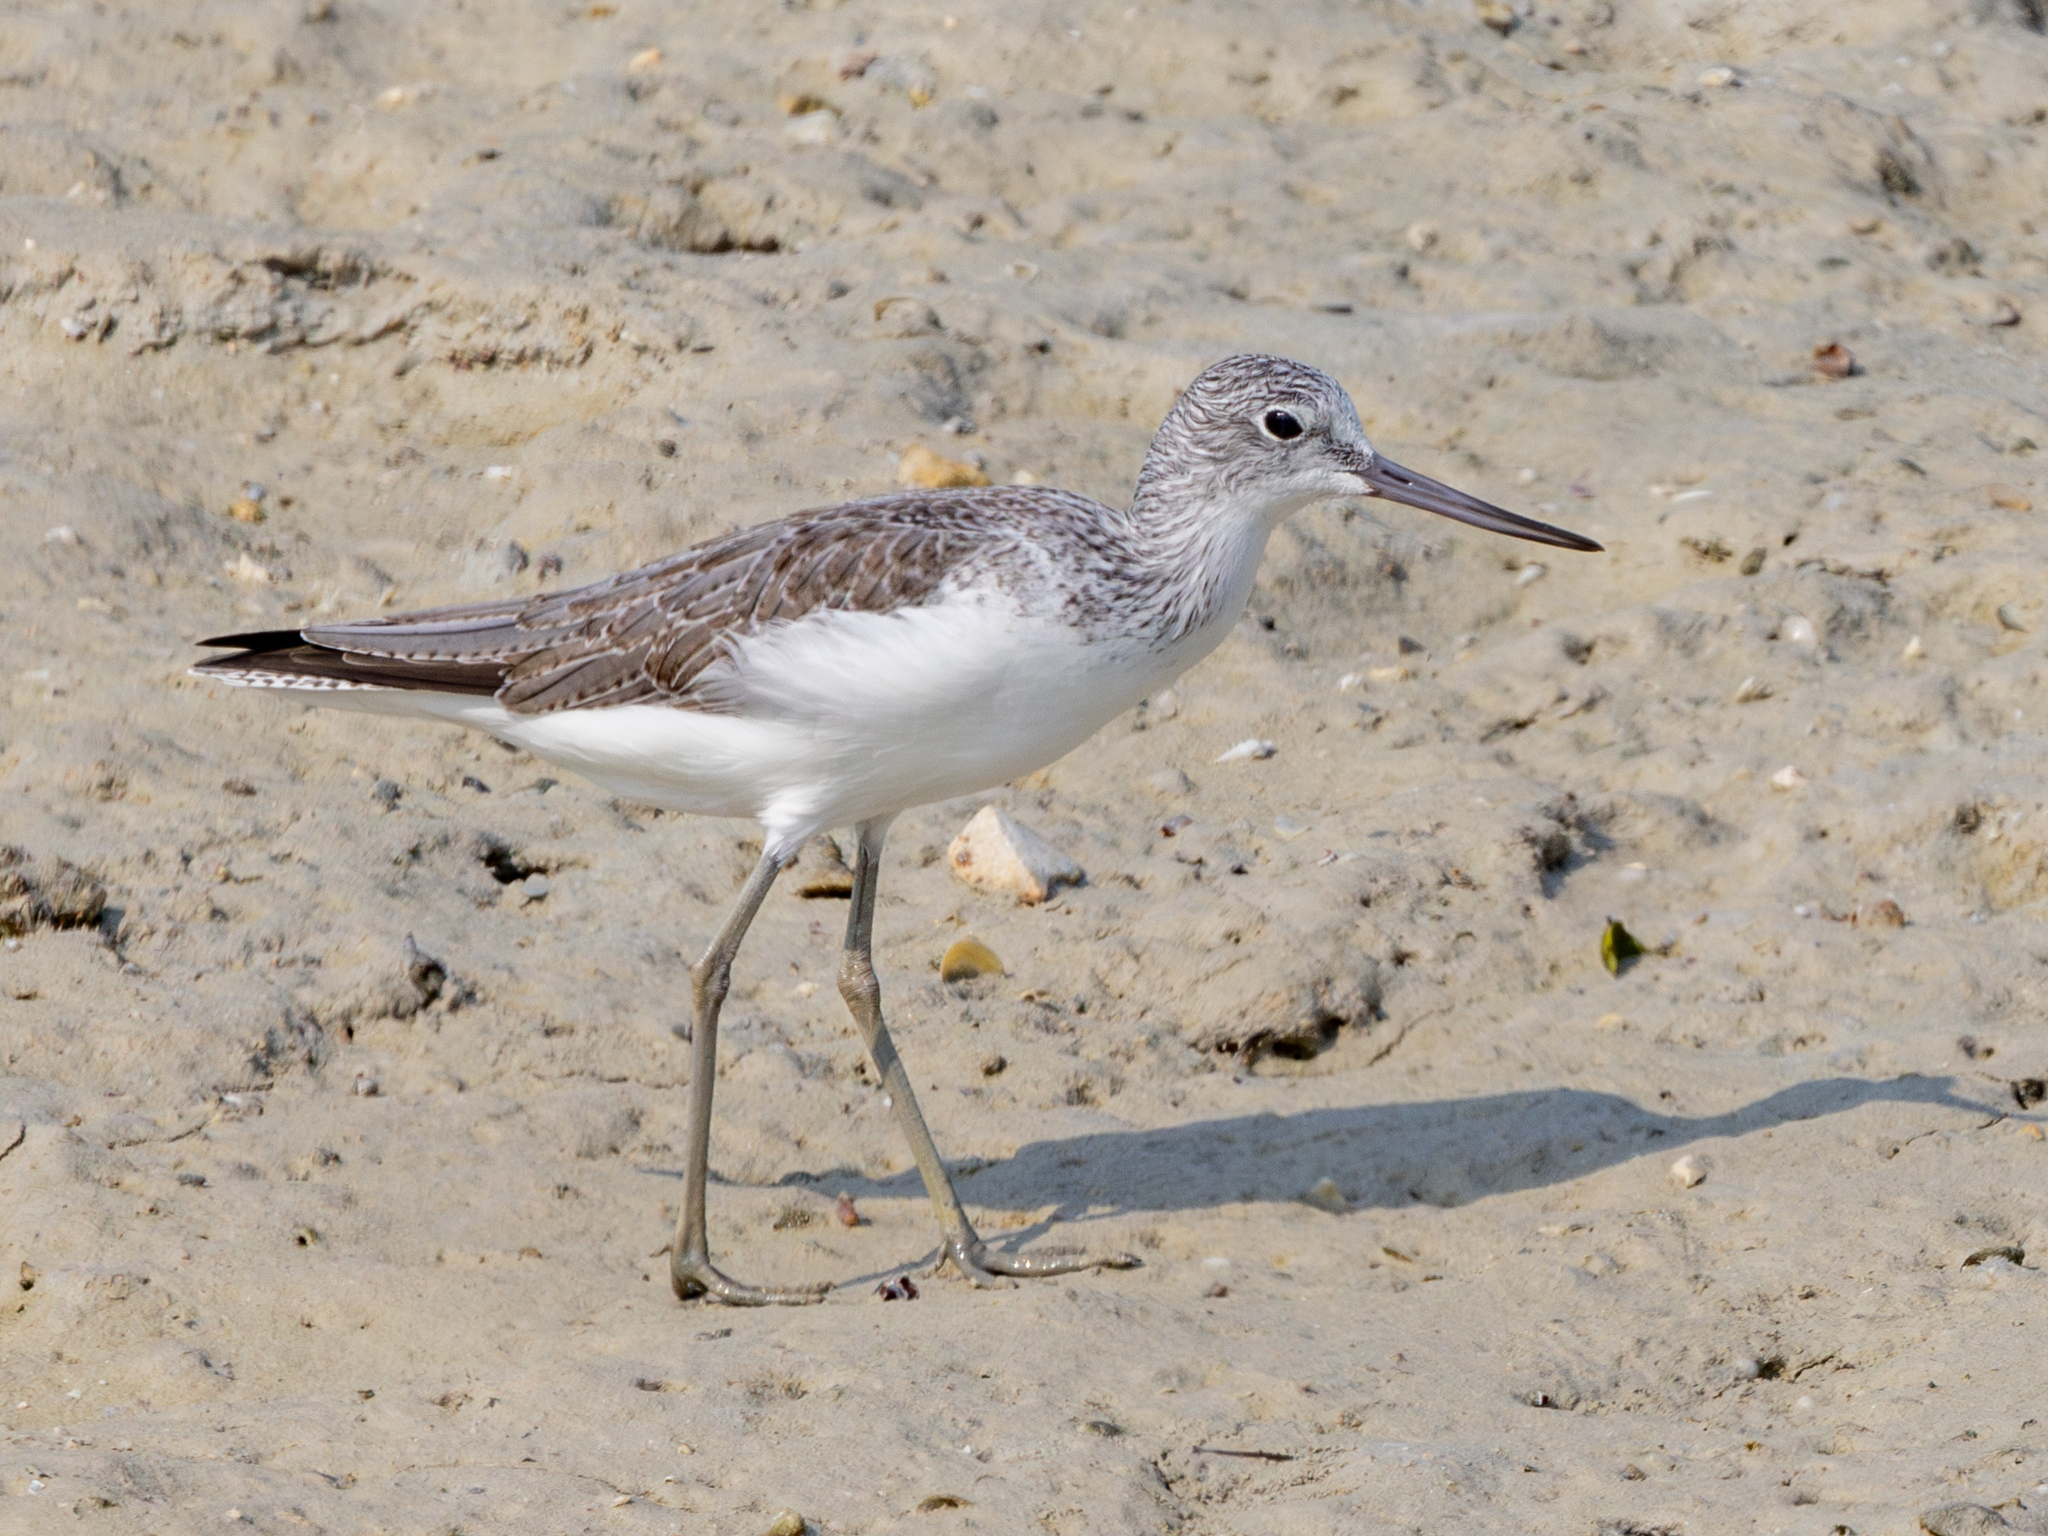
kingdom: Animalia
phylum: Chordata
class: Aves
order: Charadriiformes
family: Scolopacidae
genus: Tringa
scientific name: Tringa nebularia
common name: Common greenshank
